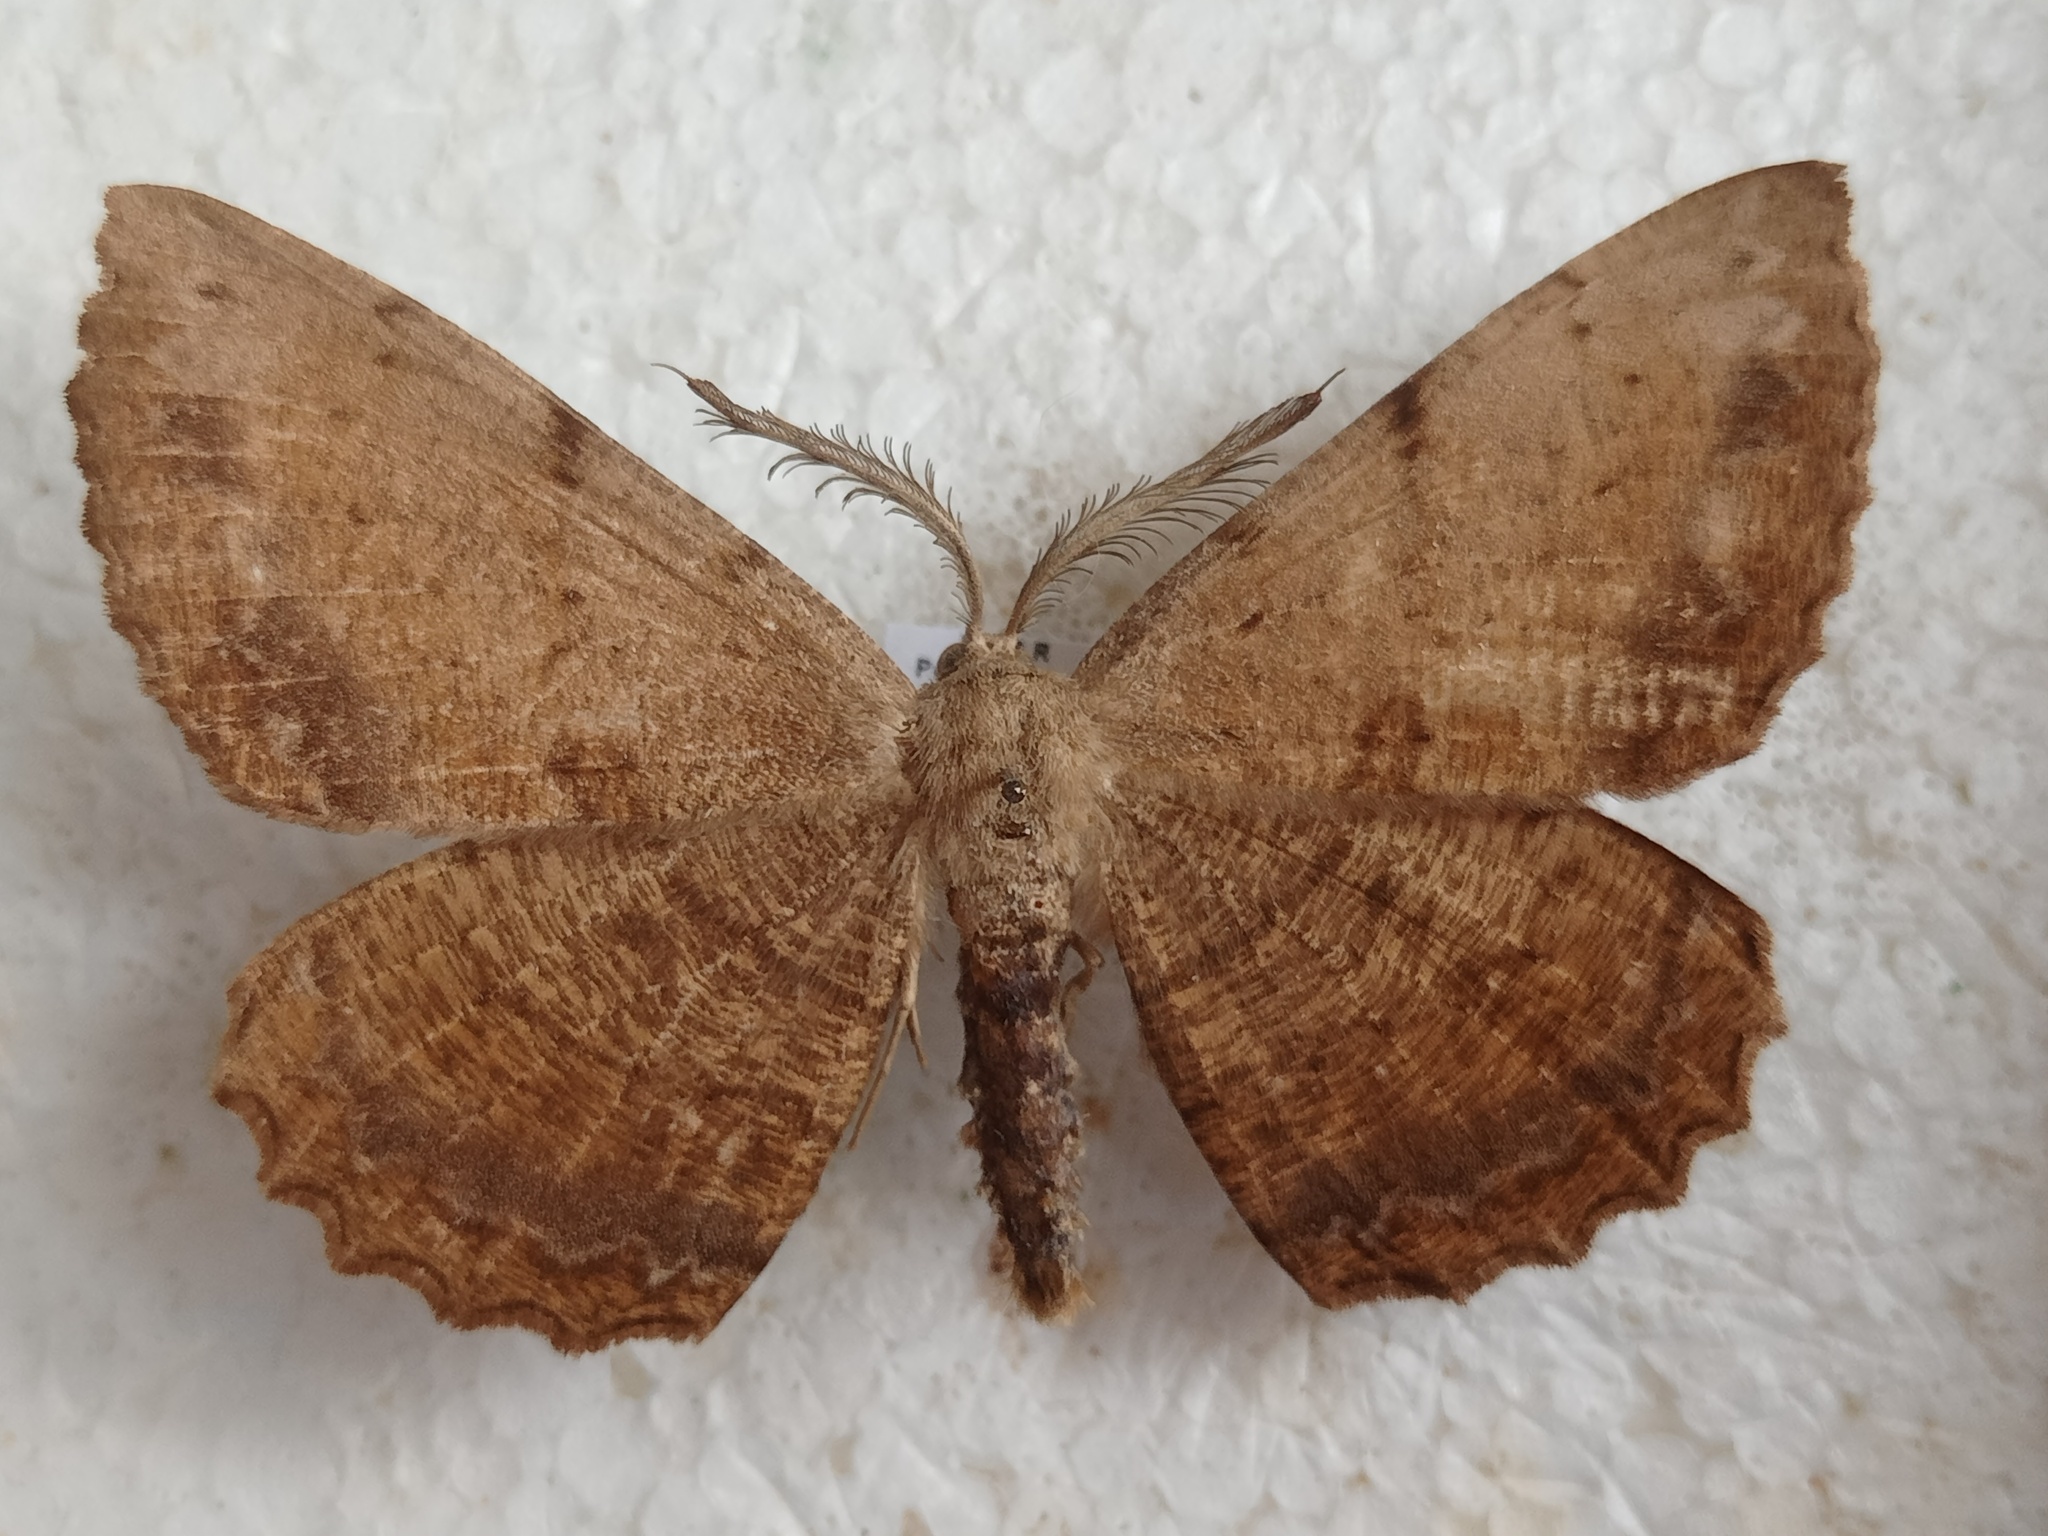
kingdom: Animalia
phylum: Arthropoda
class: Insecta
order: Lepidoptera
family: Geometridae
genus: Anticypella
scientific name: Anticypella diffusaria
